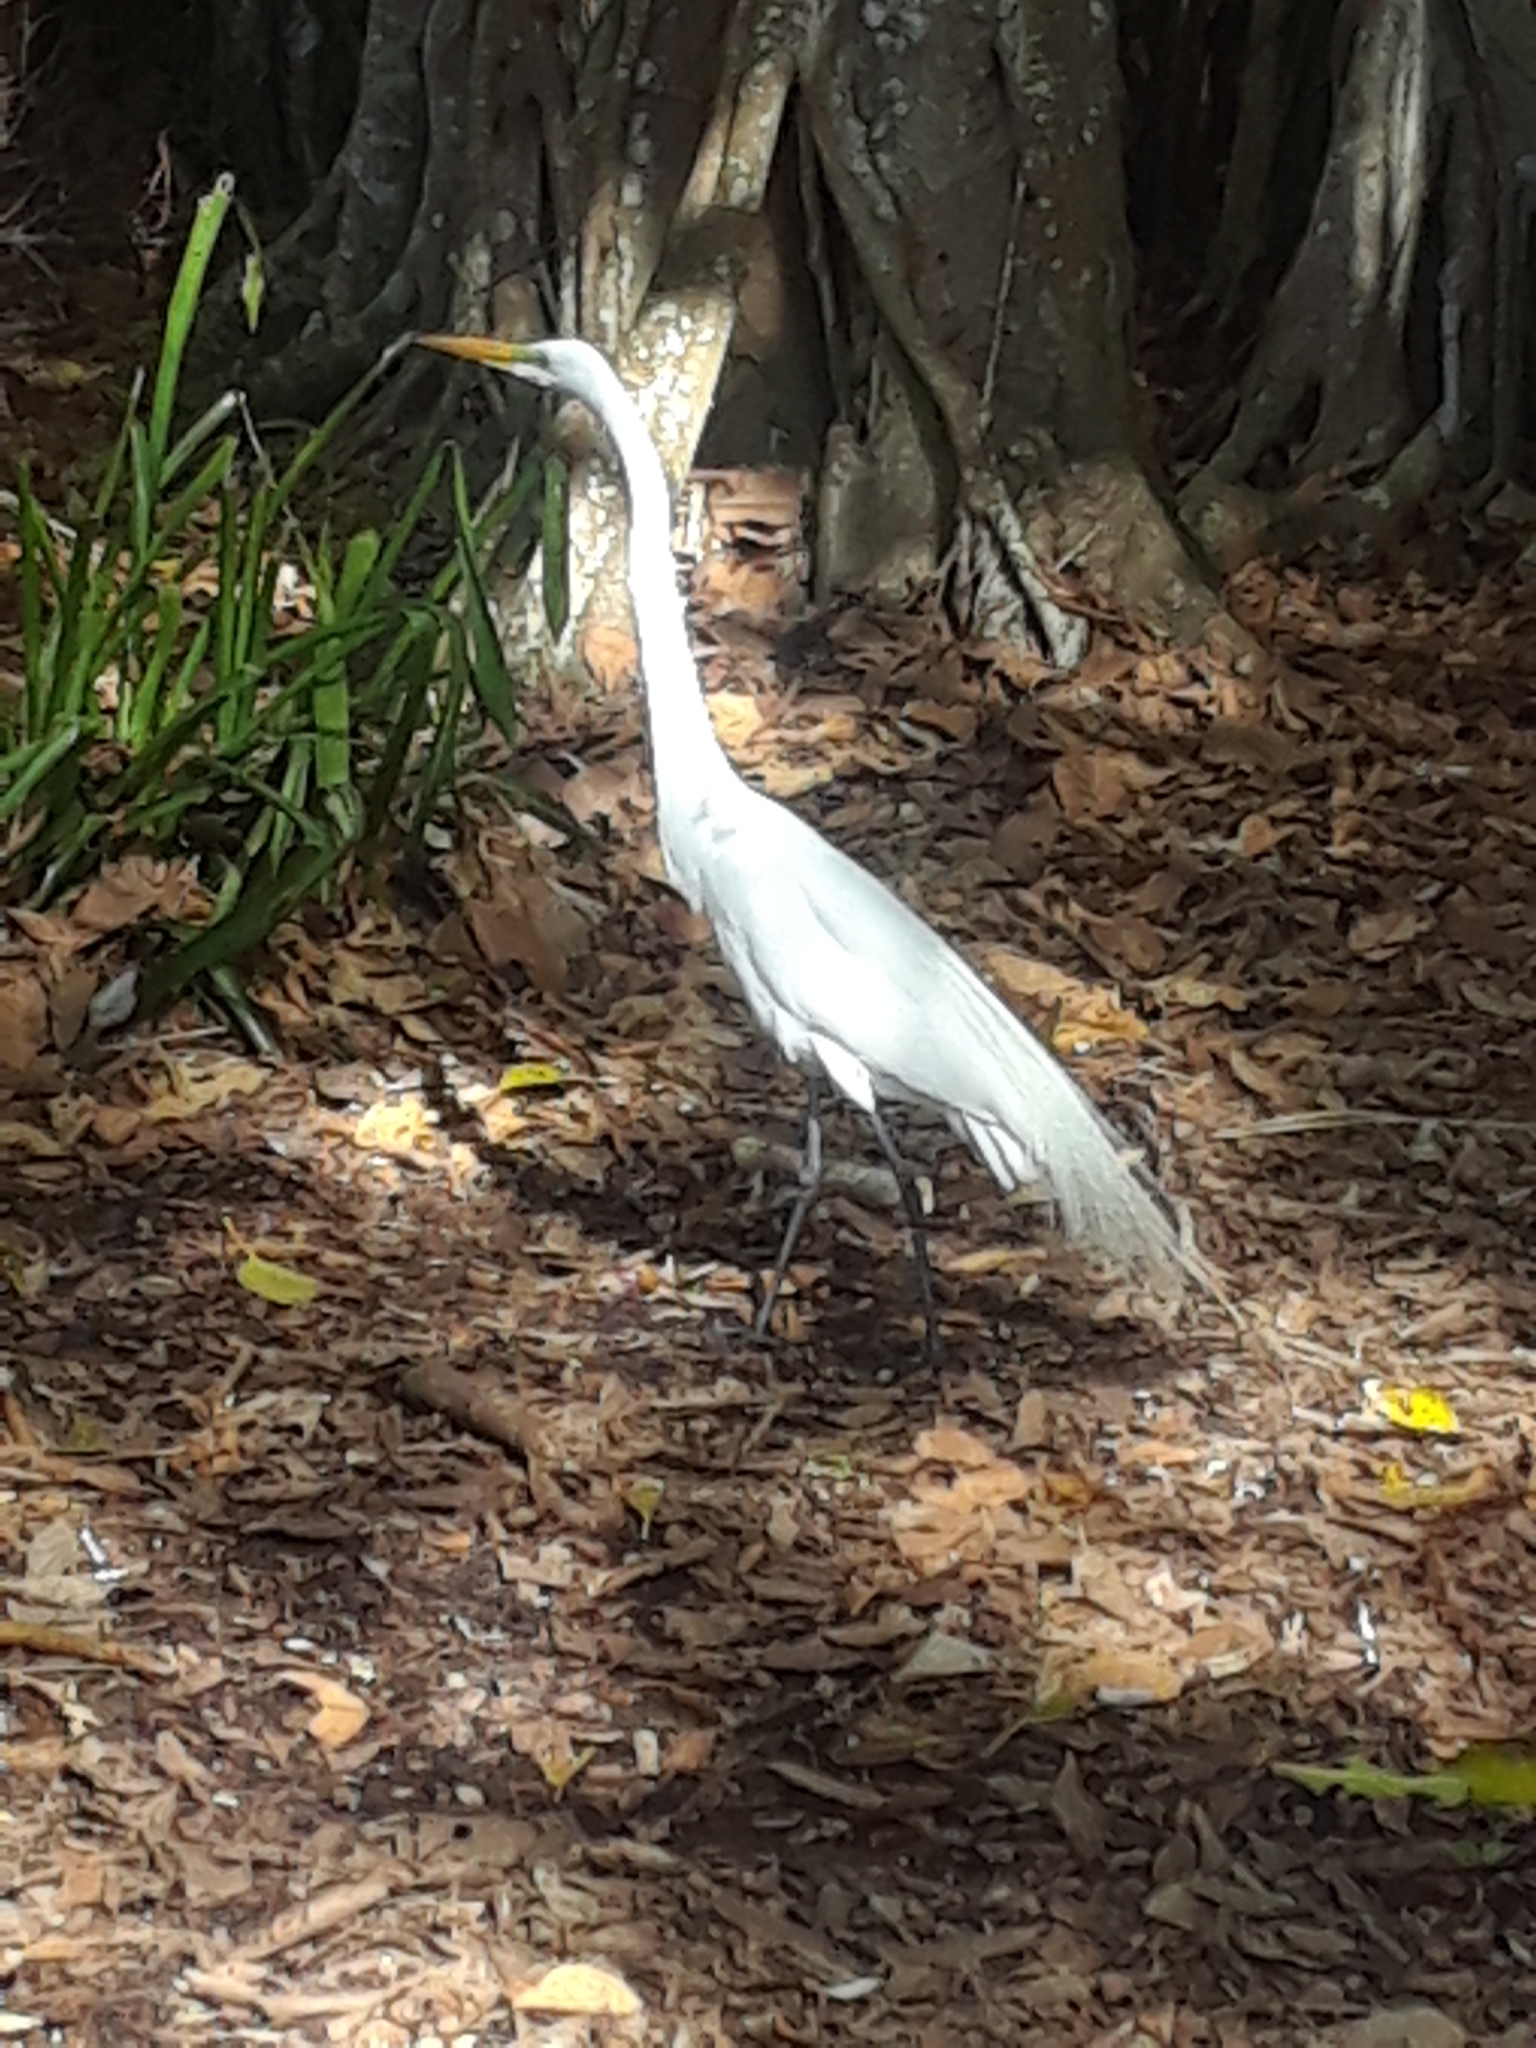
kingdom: Animalia
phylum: Chordata
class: Aves
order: Pelecaniformes
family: Ardeidae
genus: Ardea
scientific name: Ardea alba
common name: Great egret
